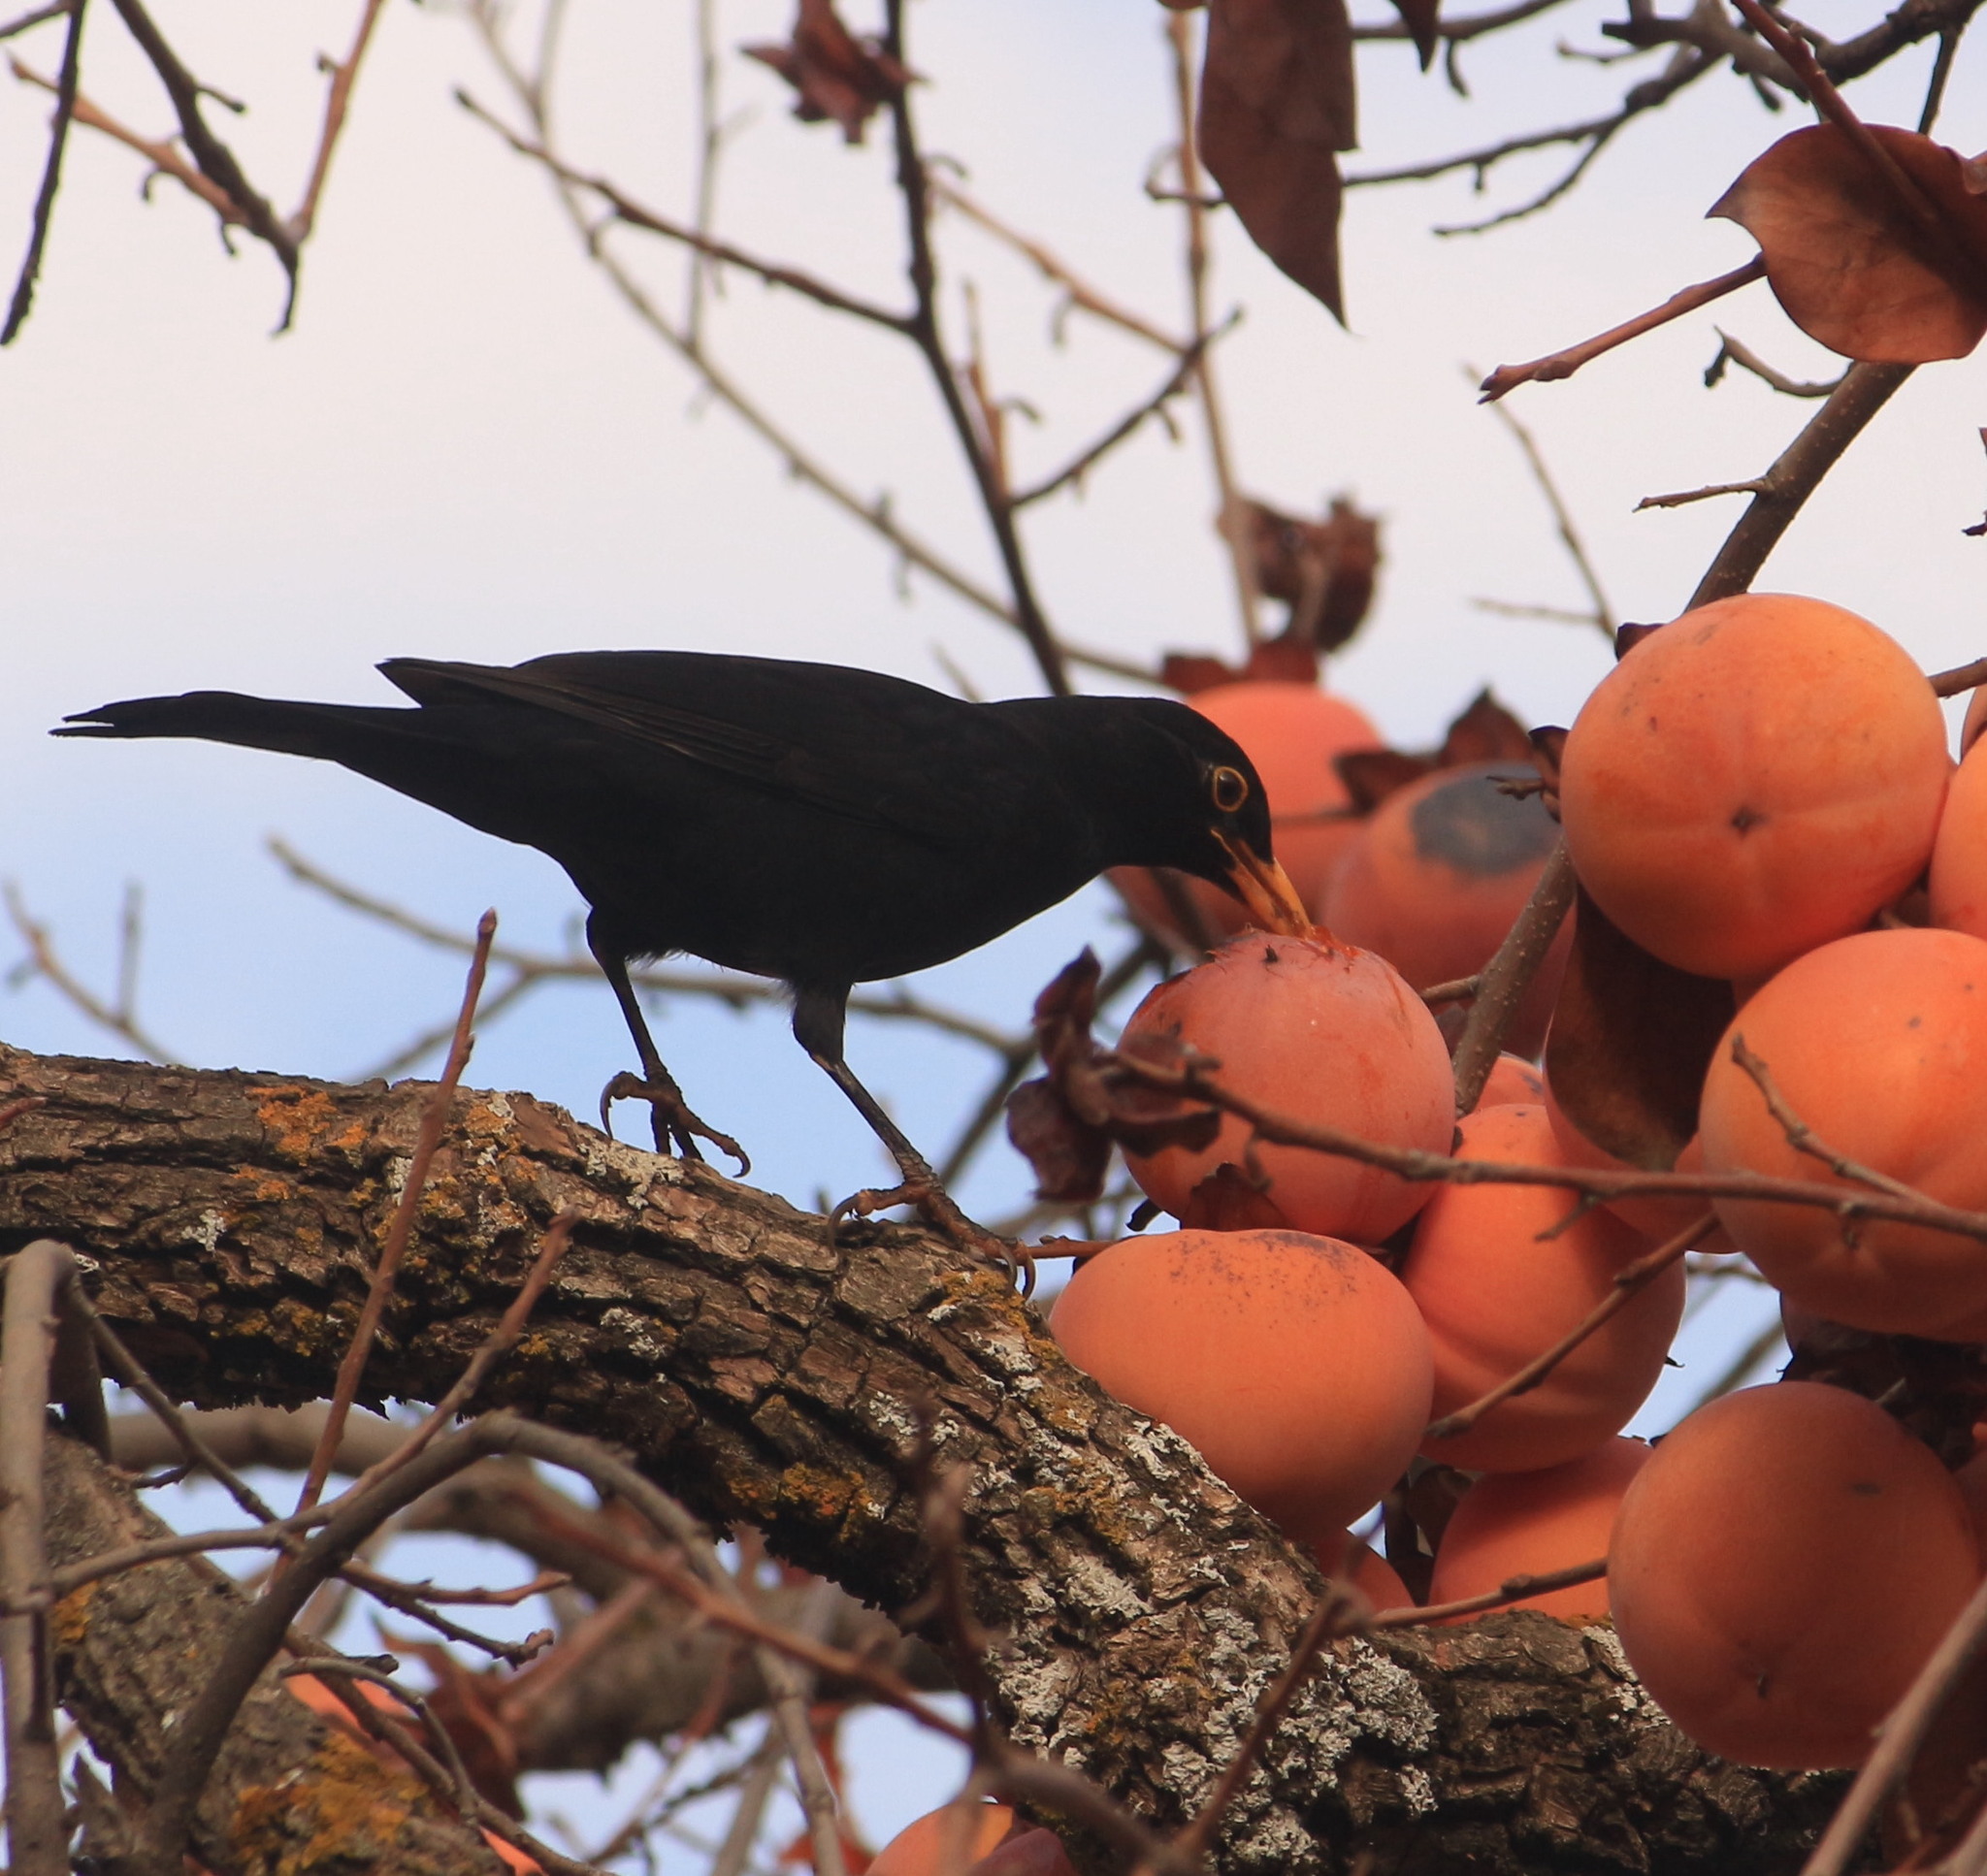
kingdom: Animalia
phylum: Chordata
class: Aves
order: Passeriformes
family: Turdidae
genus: Turdus
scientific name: Turdus merula
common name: Common blackbird
